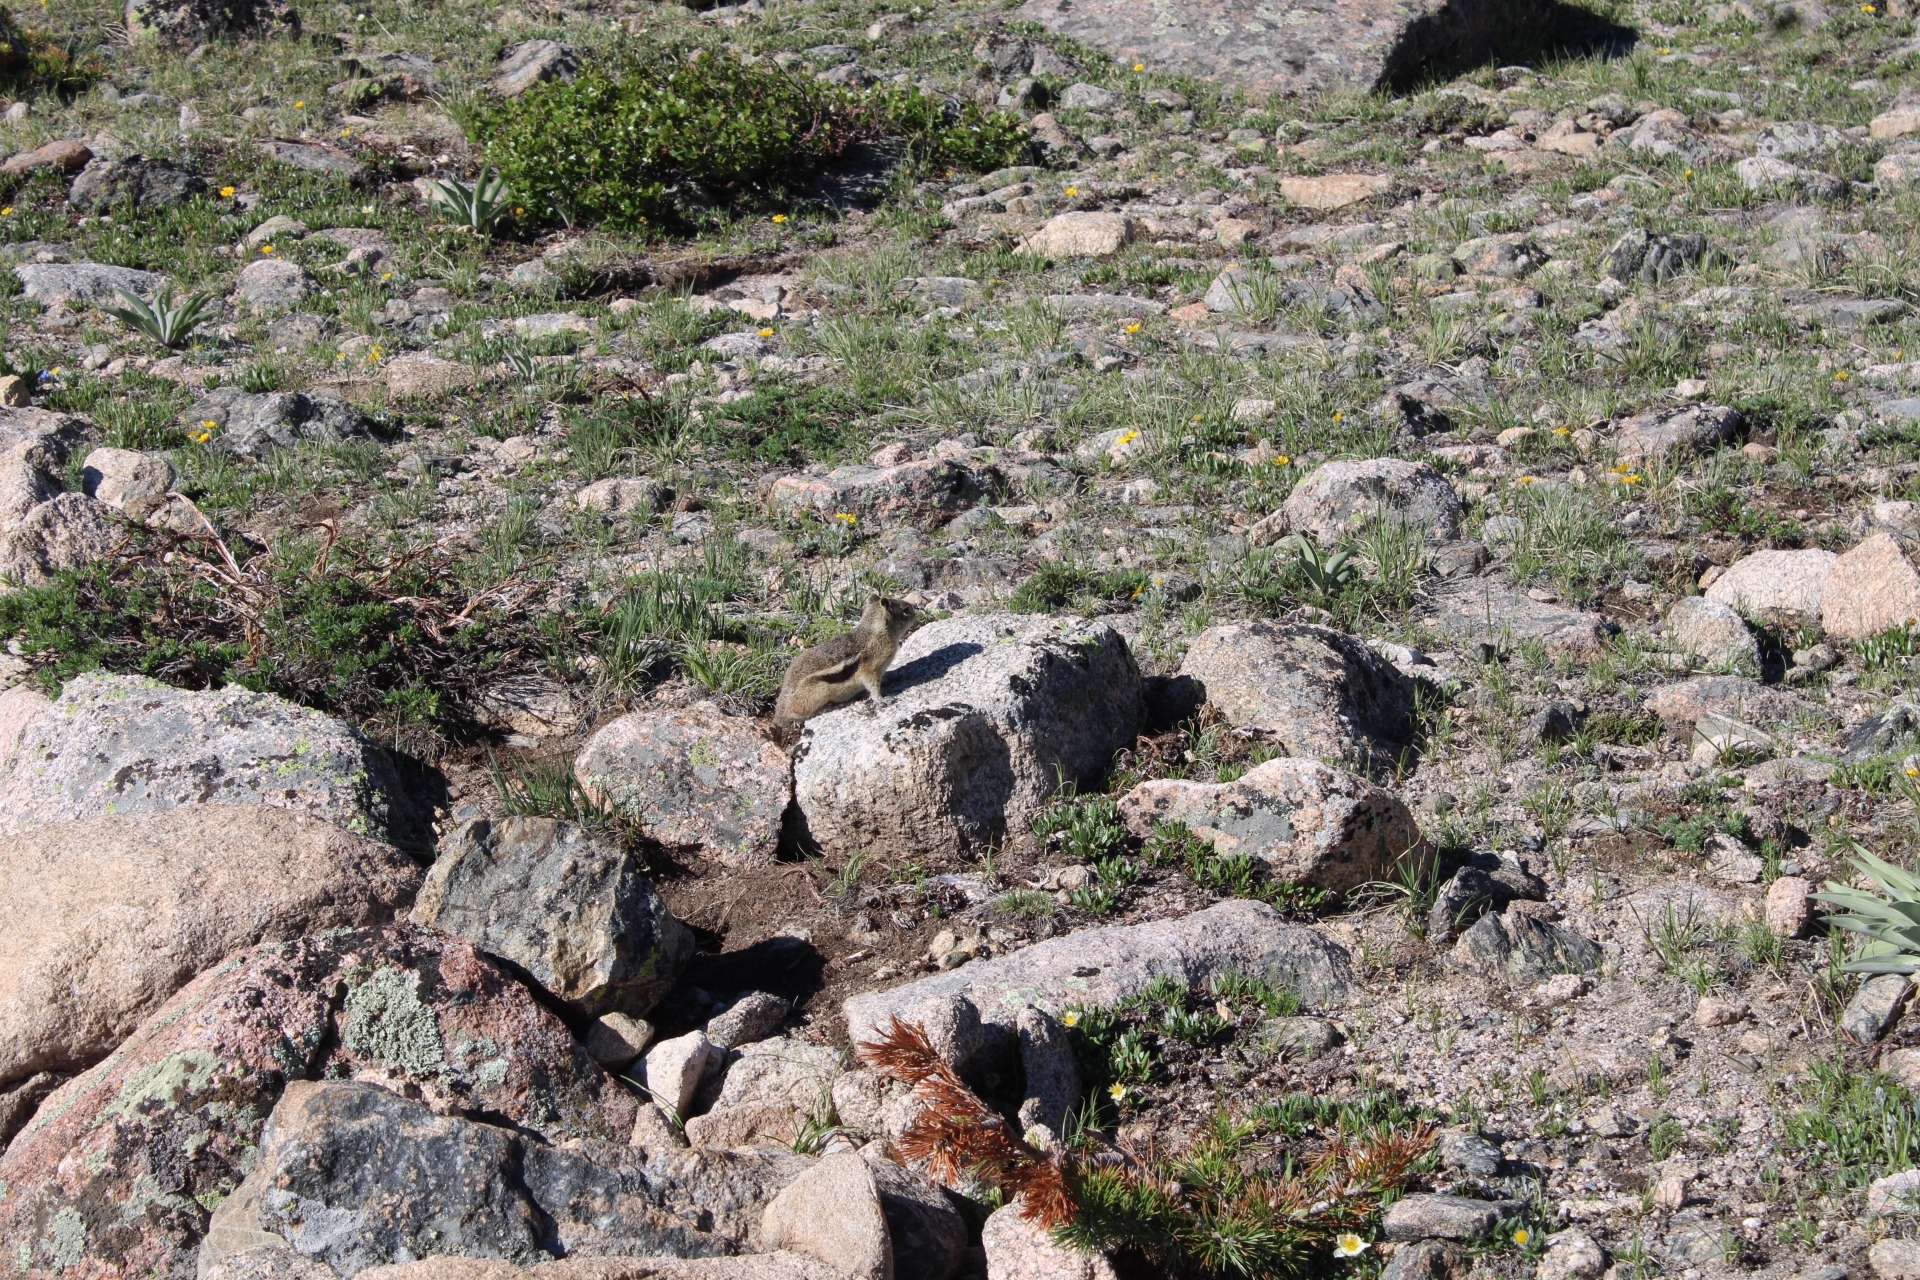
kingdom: Animalia
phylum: Chordata
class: Mammalia
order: Rodentia
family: Sciuridae
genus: Callospermophilus
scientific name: Callospermophilus lateralis
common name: Golden-mantled ground squirrel
